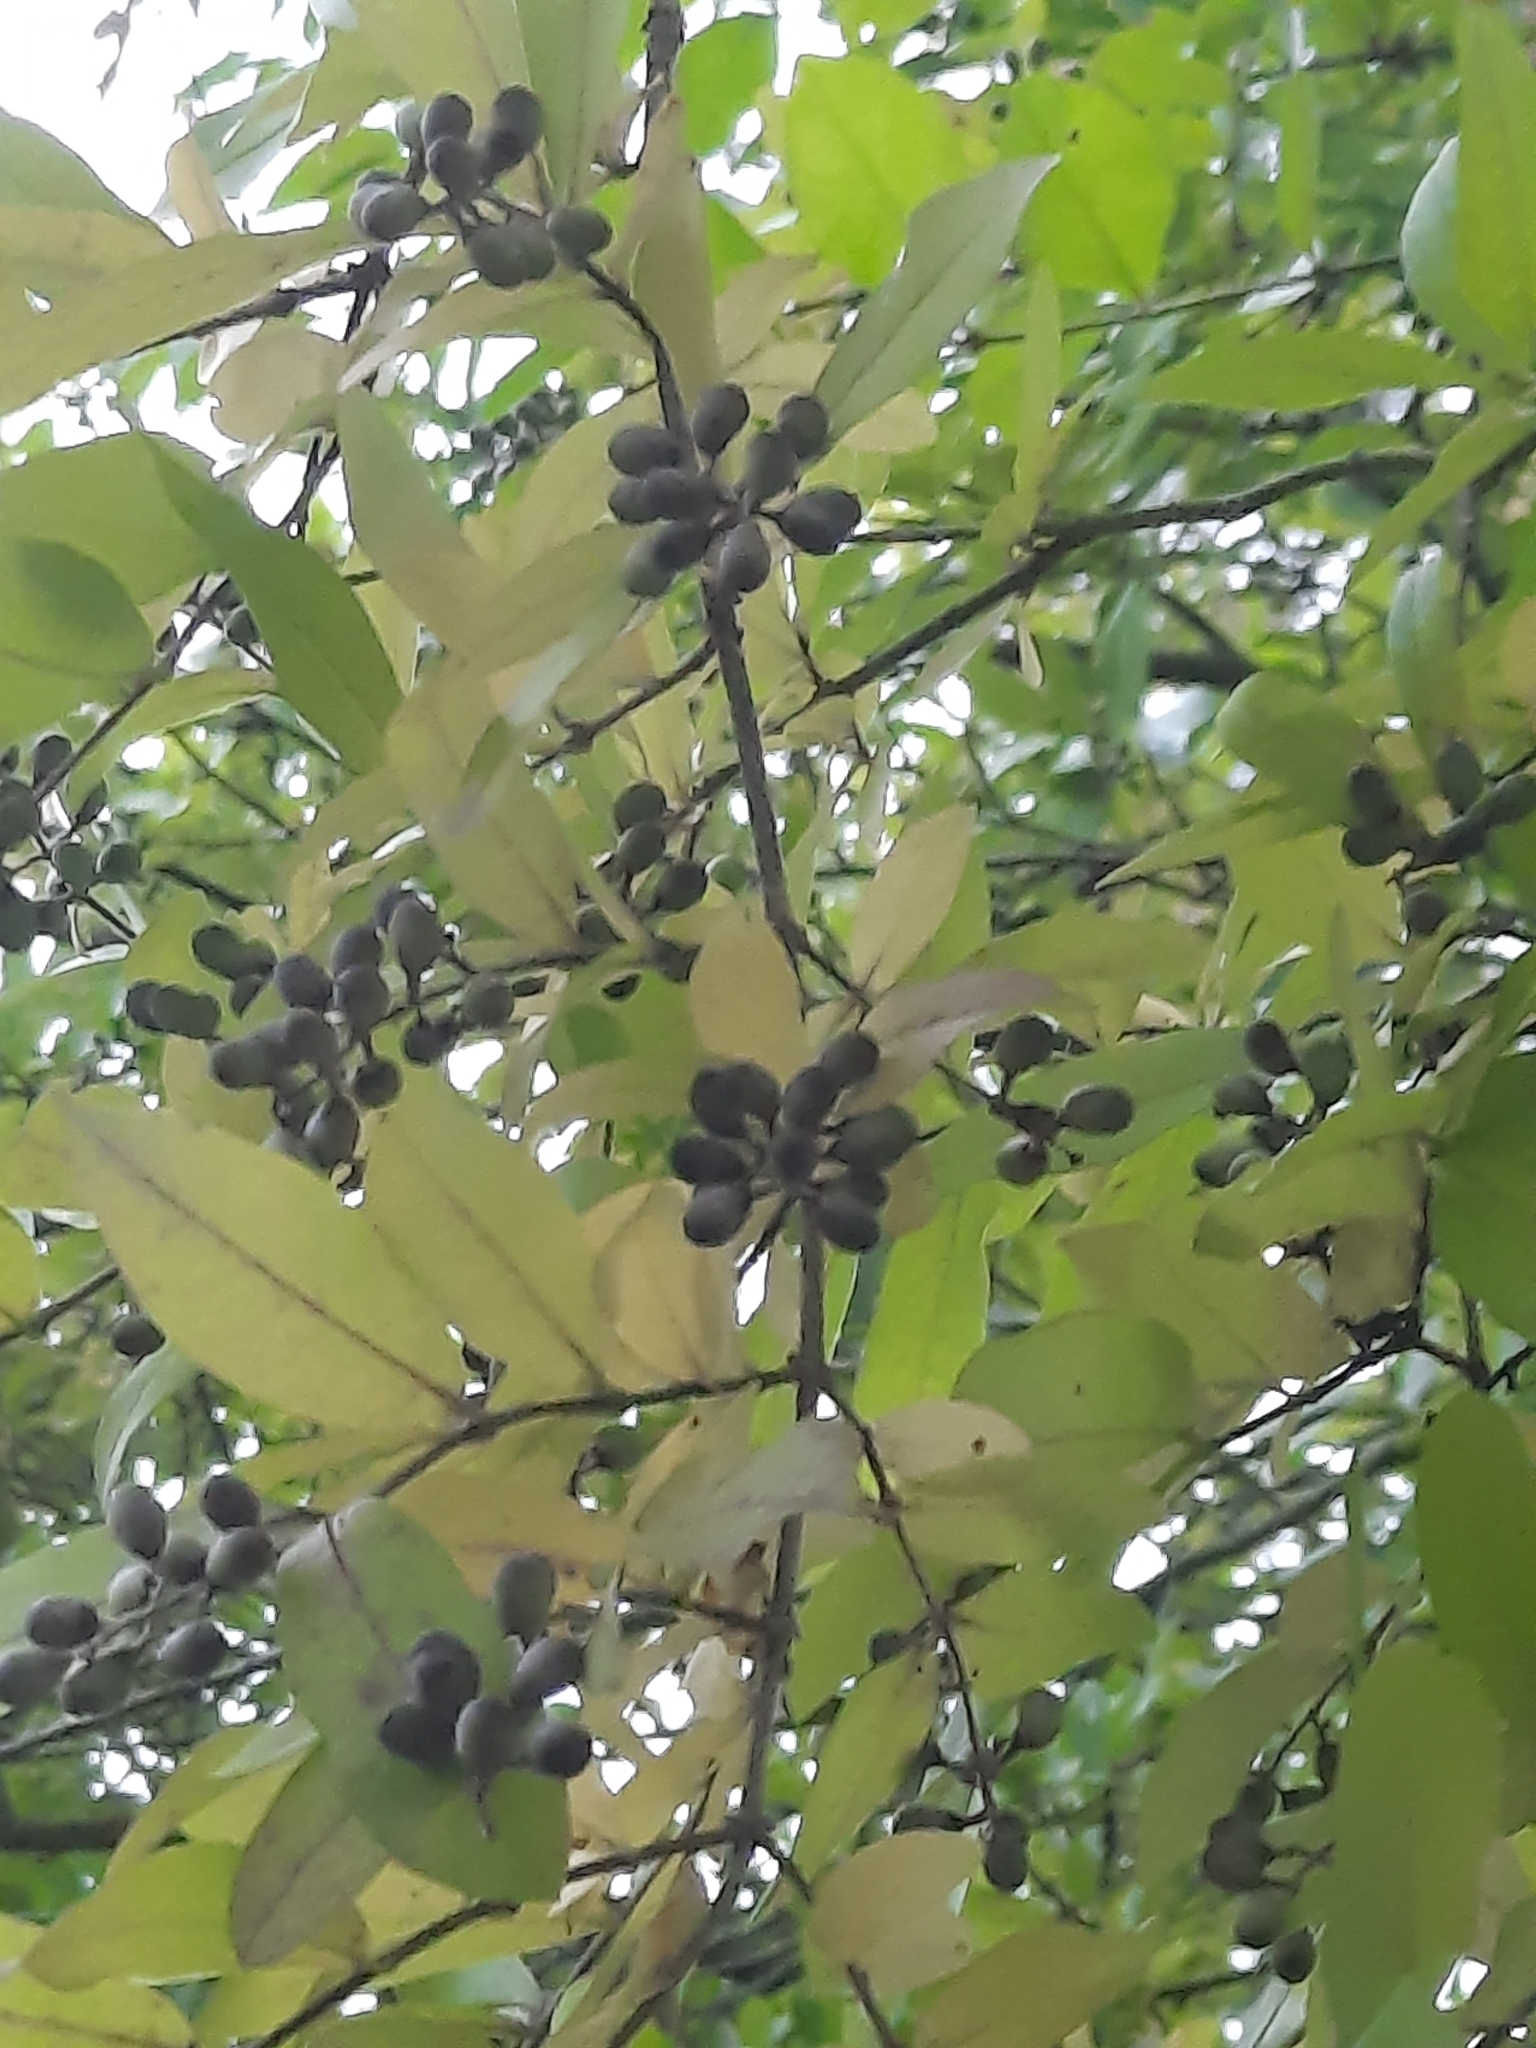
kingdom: Plantae
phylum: Tracheophyta
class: Magnoliopsida
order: Lamiales
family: Oleaceae
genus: Ligustrum
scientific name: Ligustrum obtusifolium
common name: Border privet
